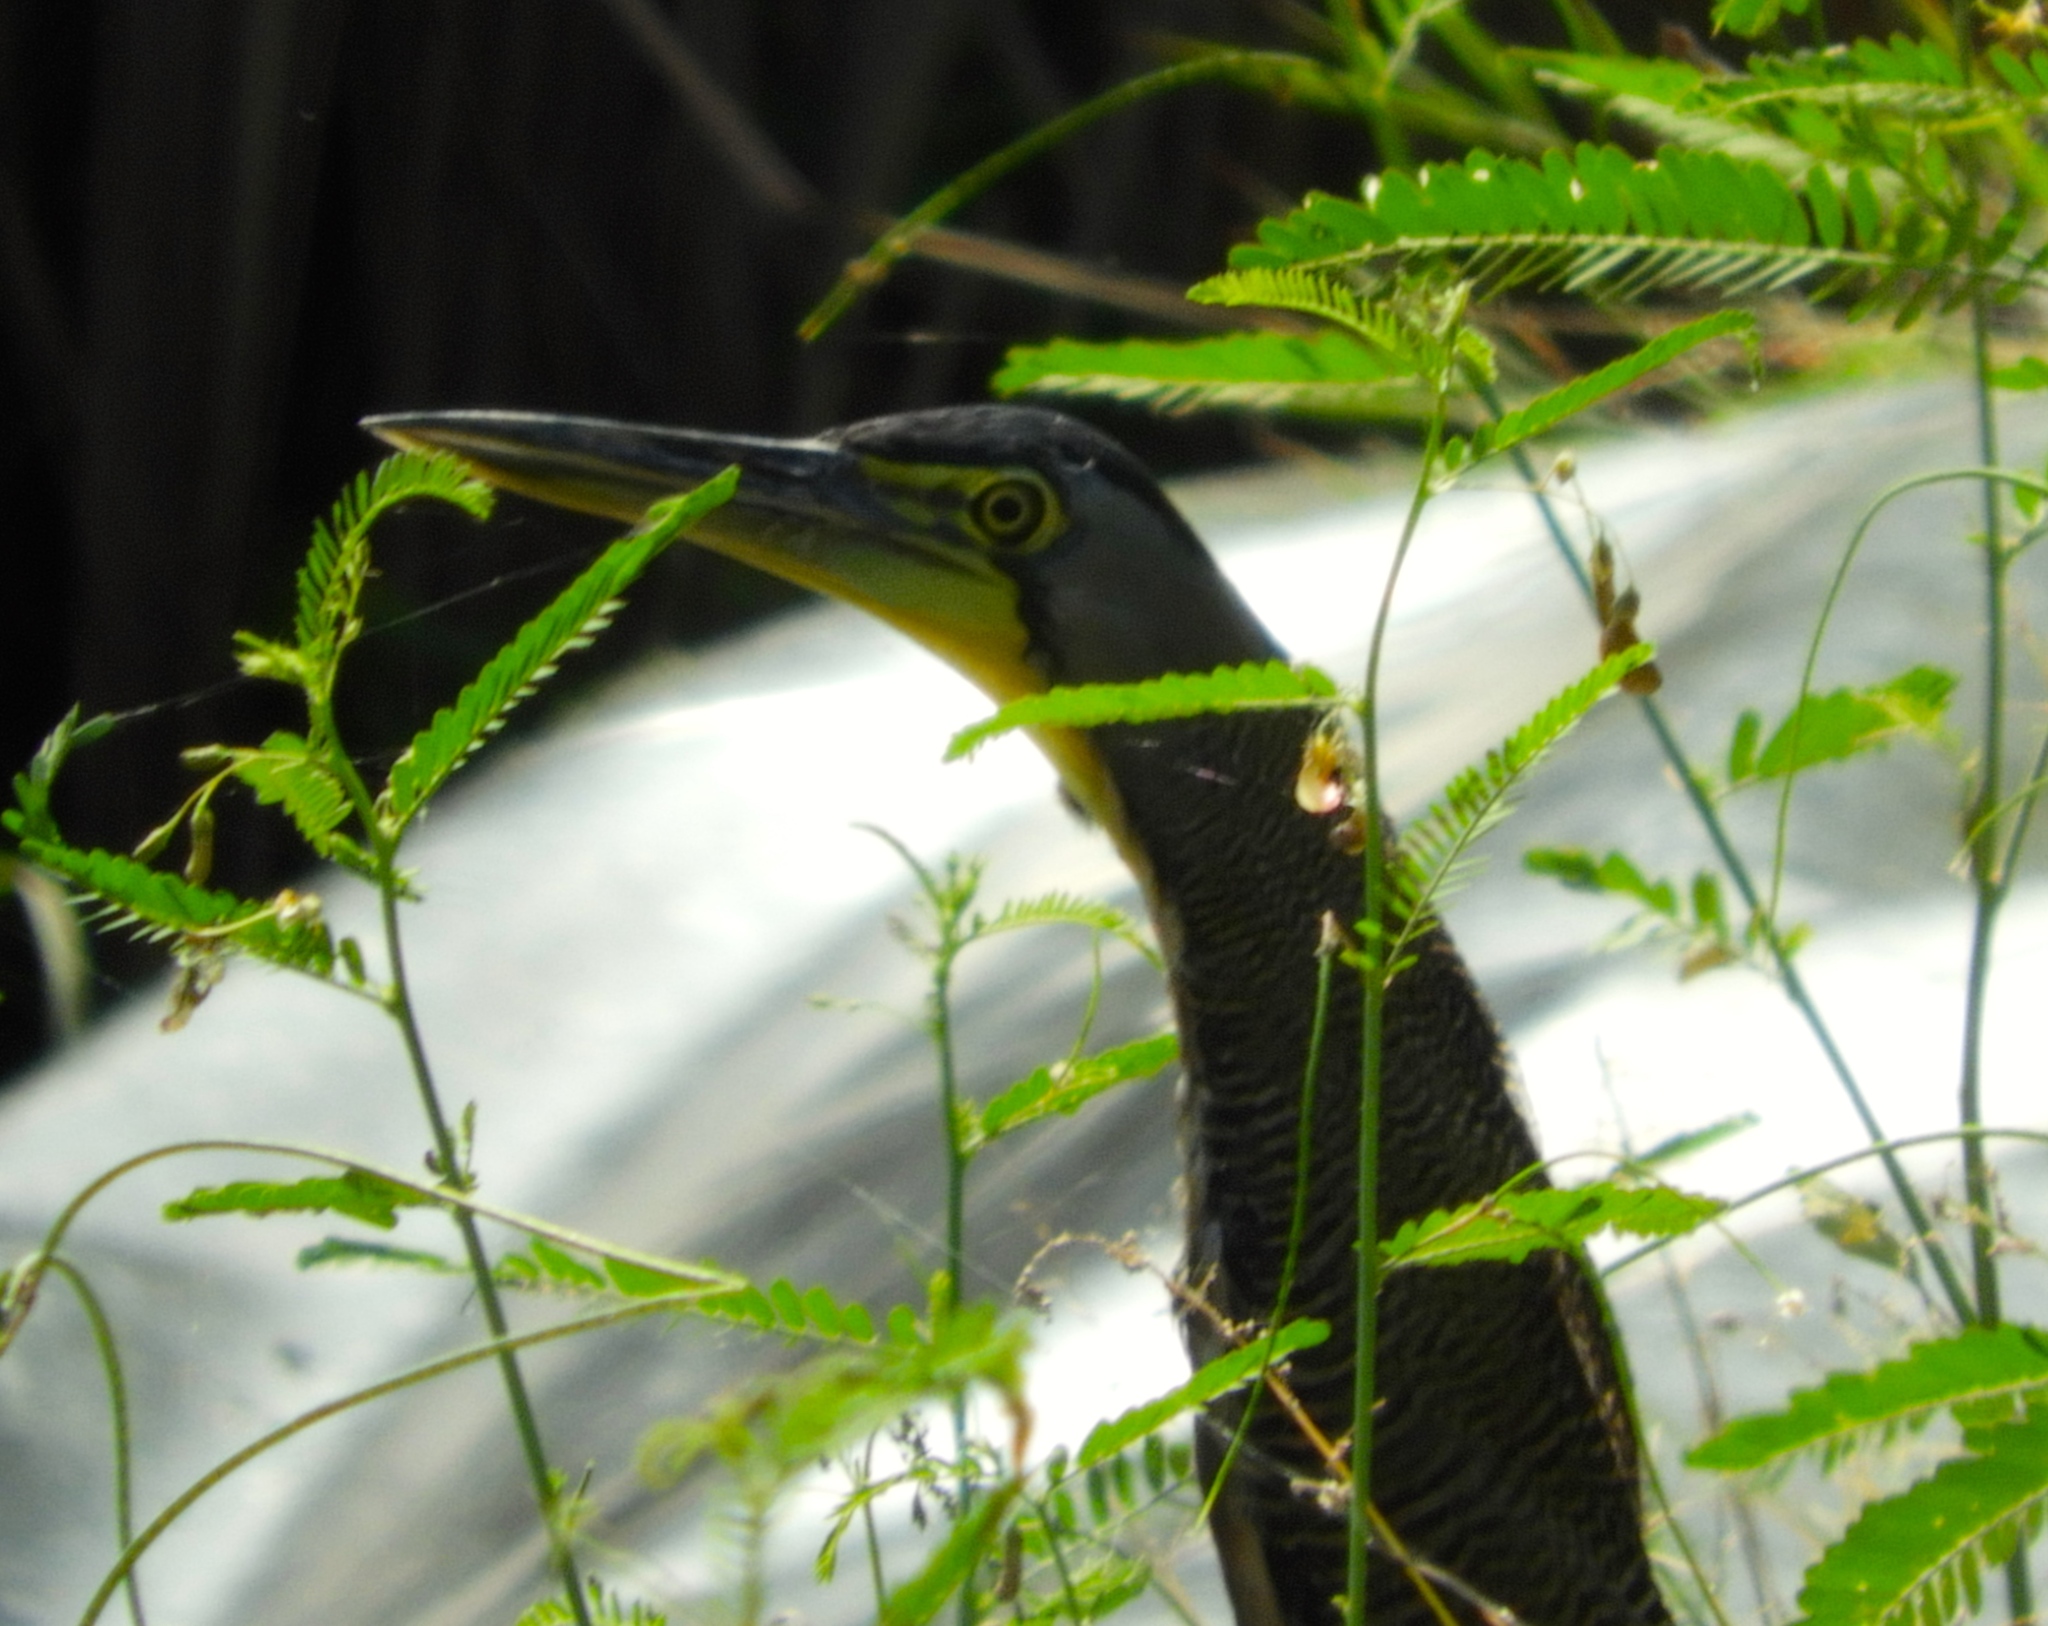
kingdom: Animalia
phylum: Chordata
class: Aves
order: Pelecaniformes
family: Ardeidae
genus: Tigrisoma
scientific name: Tigrisoma mexicanum
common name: Bare-throated tiger-heron
